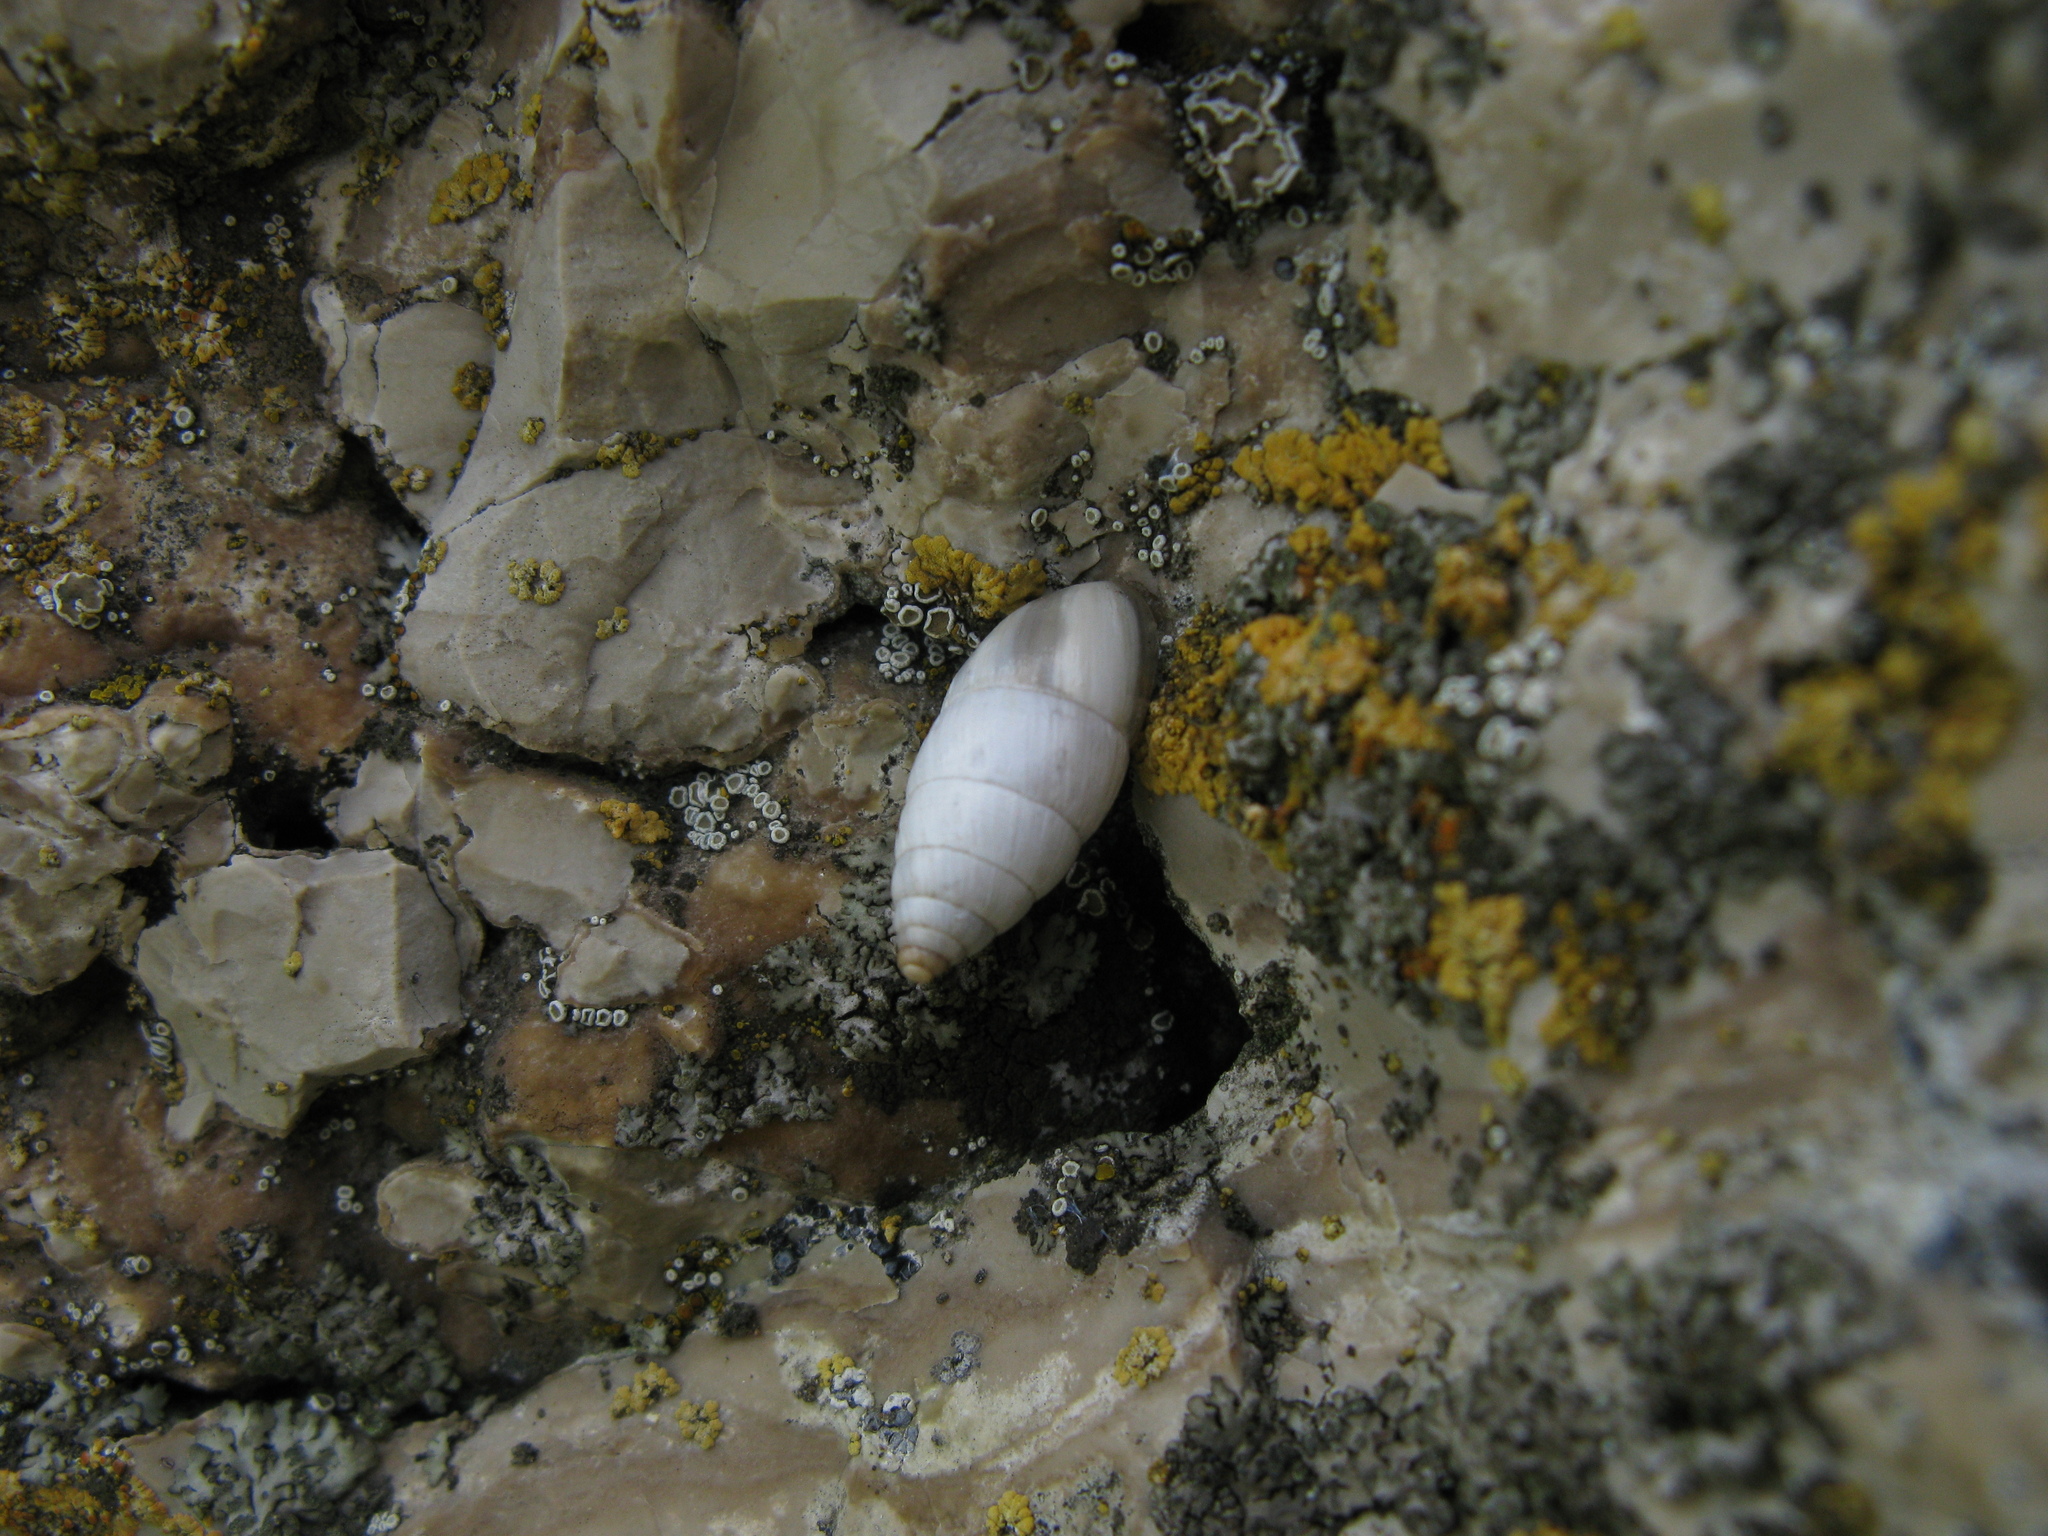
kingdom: Animalia
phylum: Mollusca
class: Gastropoda
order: Stylommatophora
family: Enidae
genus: Brephulopsis
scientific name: Brephulopsis cylindrica
